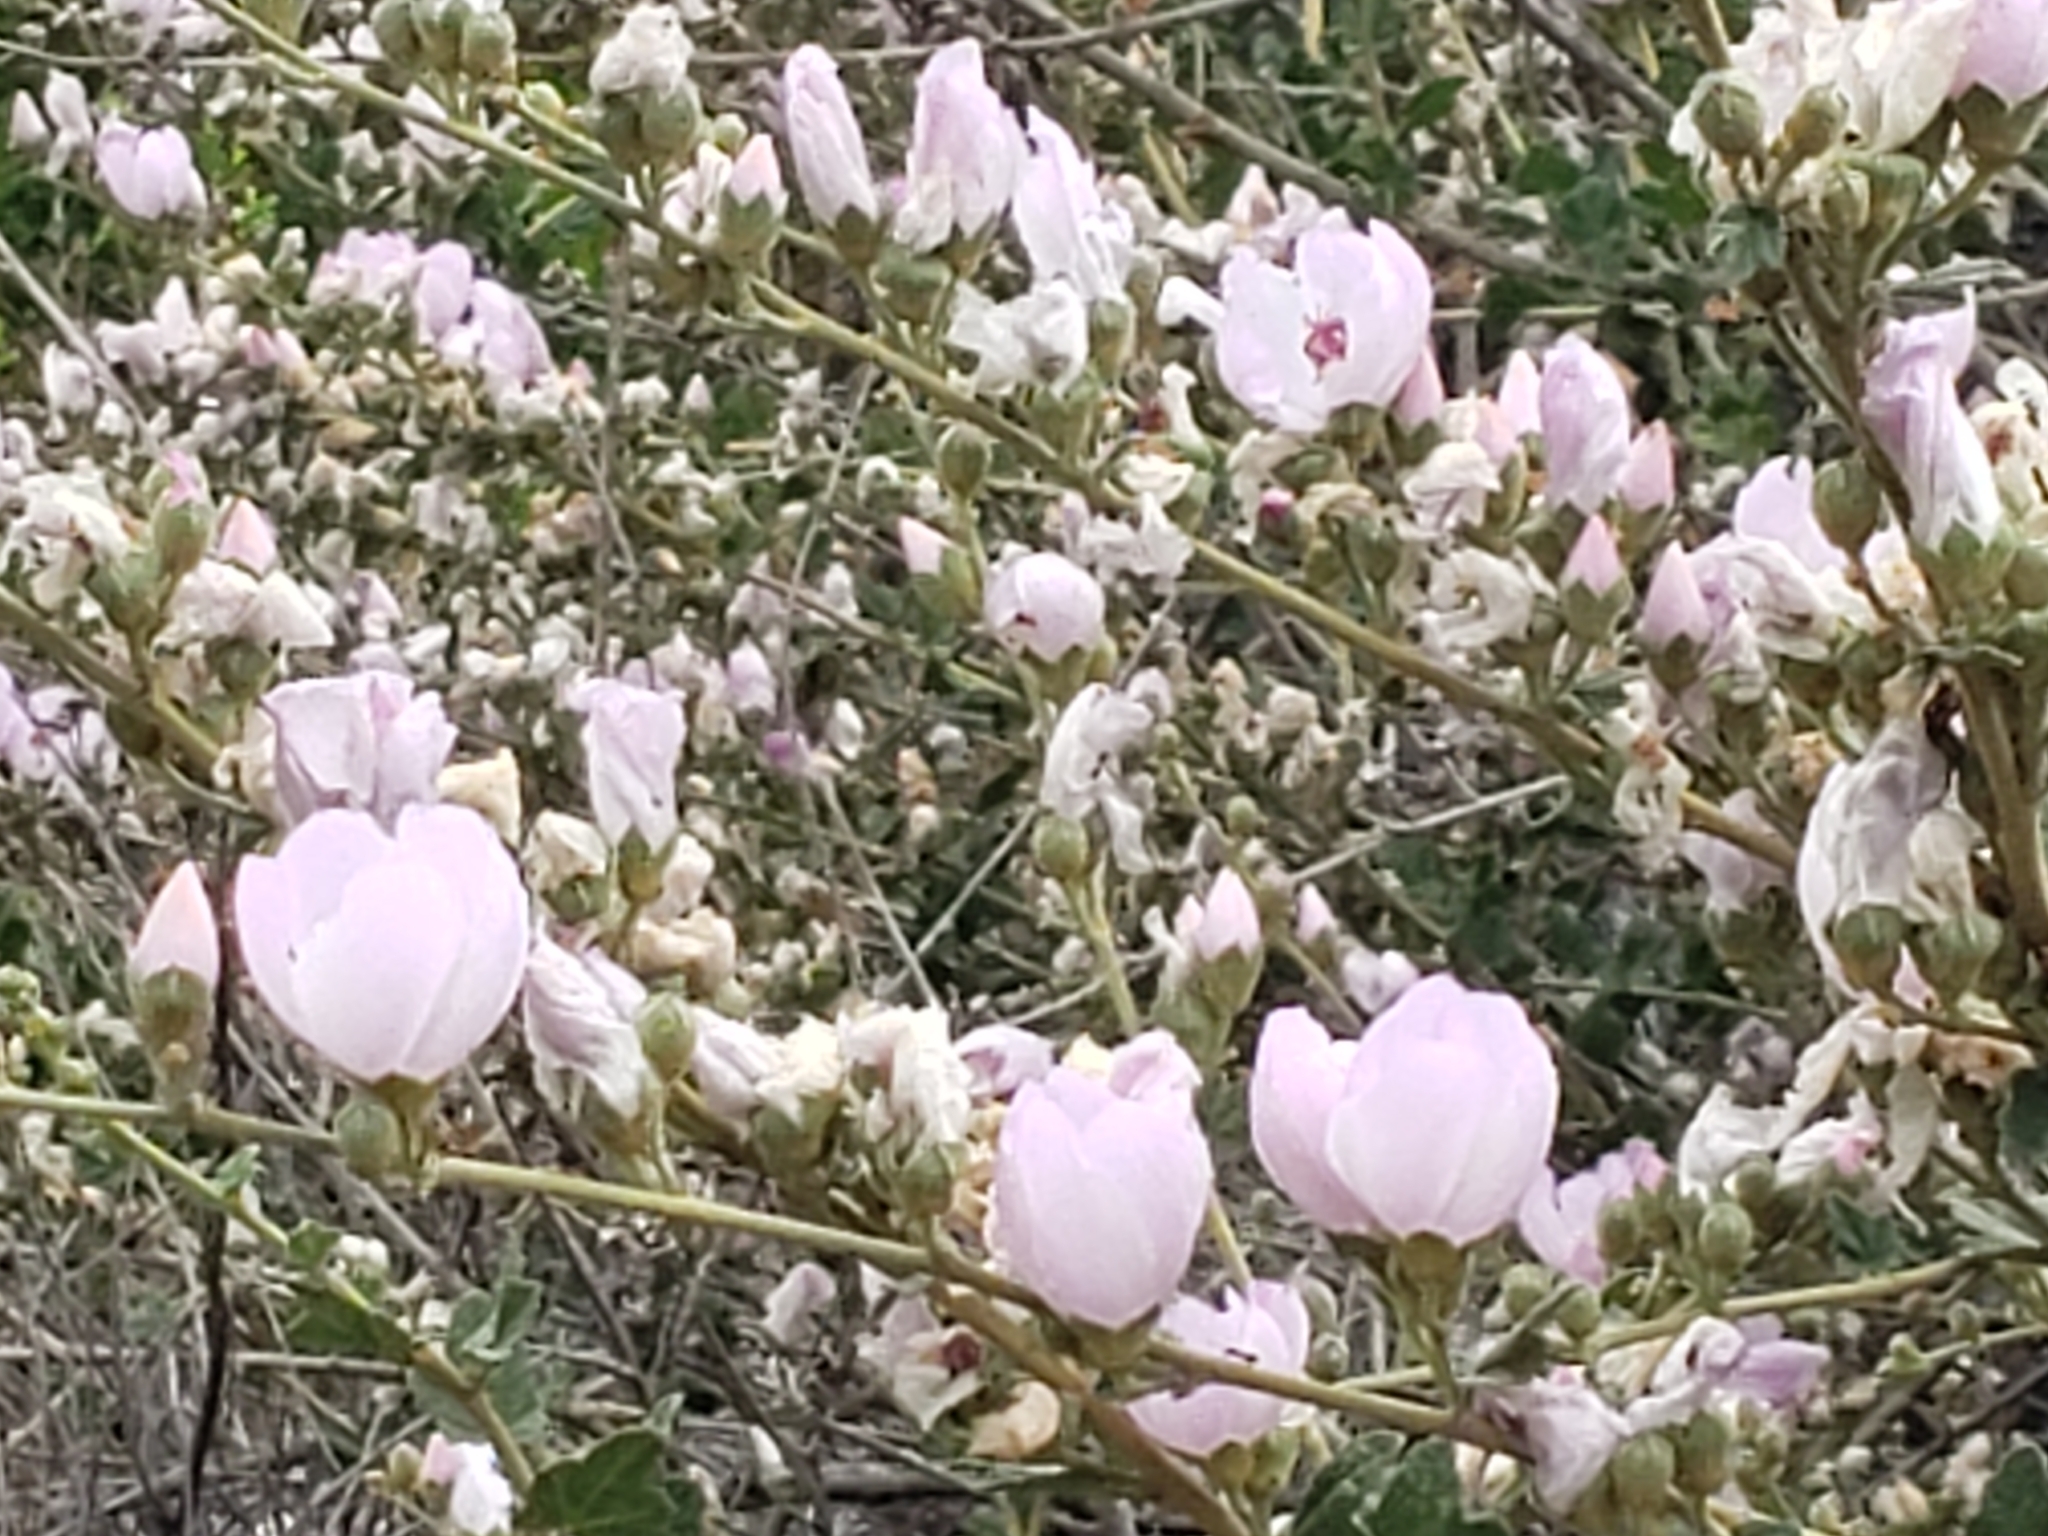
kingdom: Plantae
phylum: Tracheophyta
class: Magnoliopsida
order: Malvales
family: Malvaceae
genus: Malacothamnus
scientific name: Malacothamnus fasciculatus
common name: Sant cruz island bush-mallow
